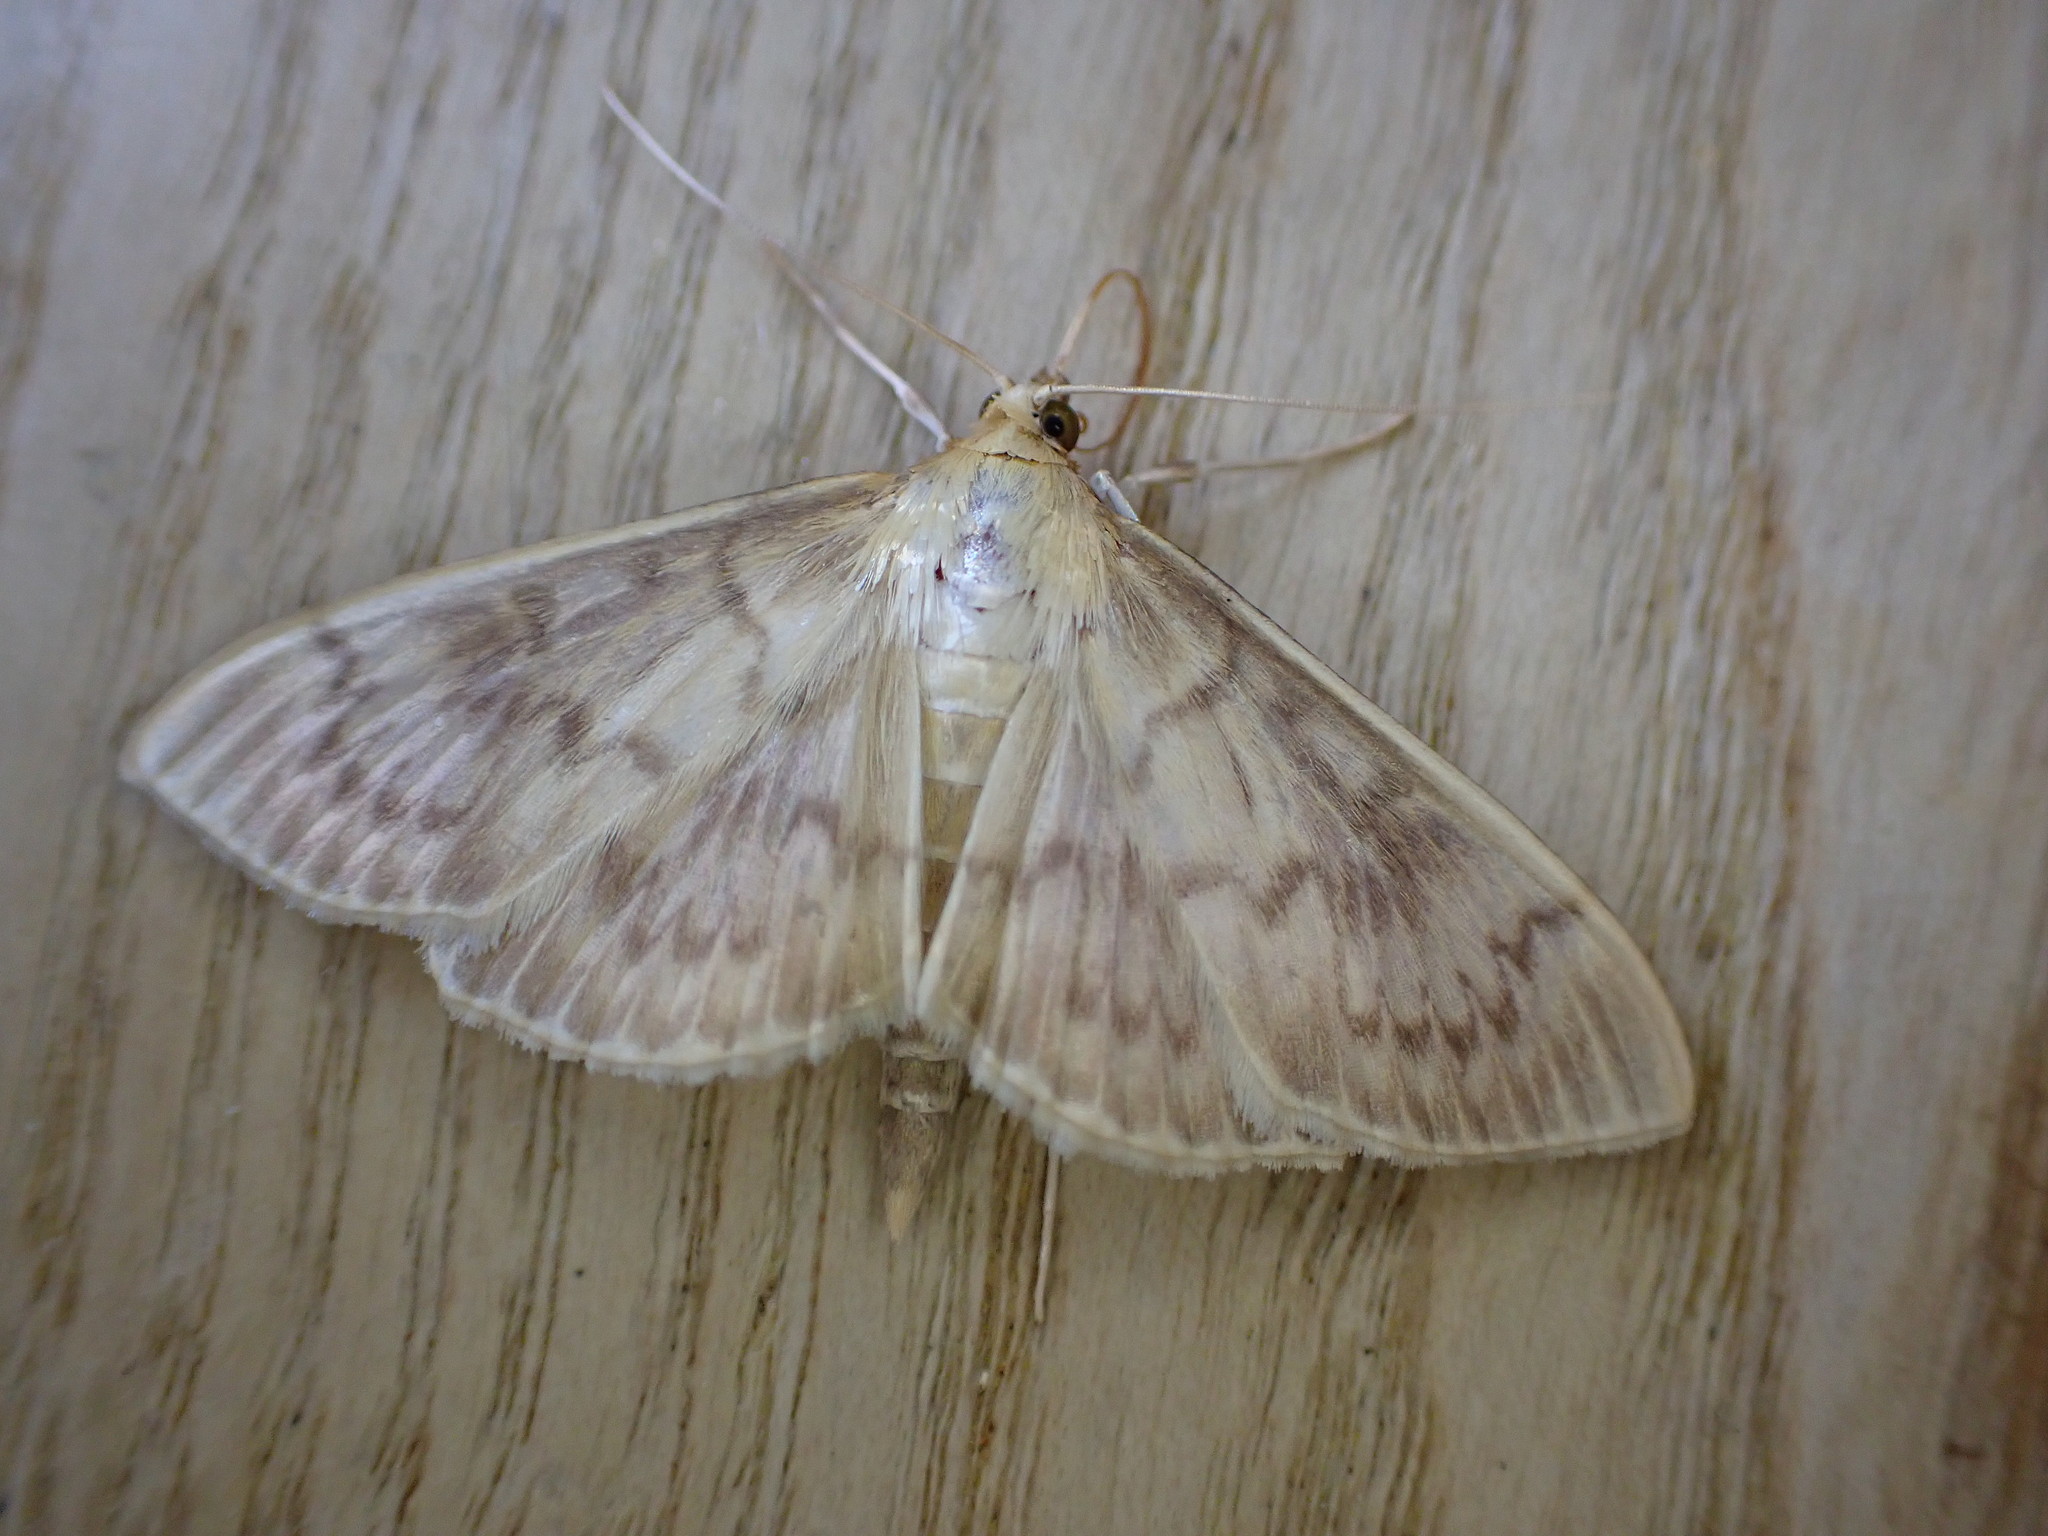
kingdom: Animalia
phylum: Arthropoda
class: Insecta
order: Lepidoptera
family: Crambidae
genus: Patania
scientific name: Patania ruralis
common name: Mother of pearl
